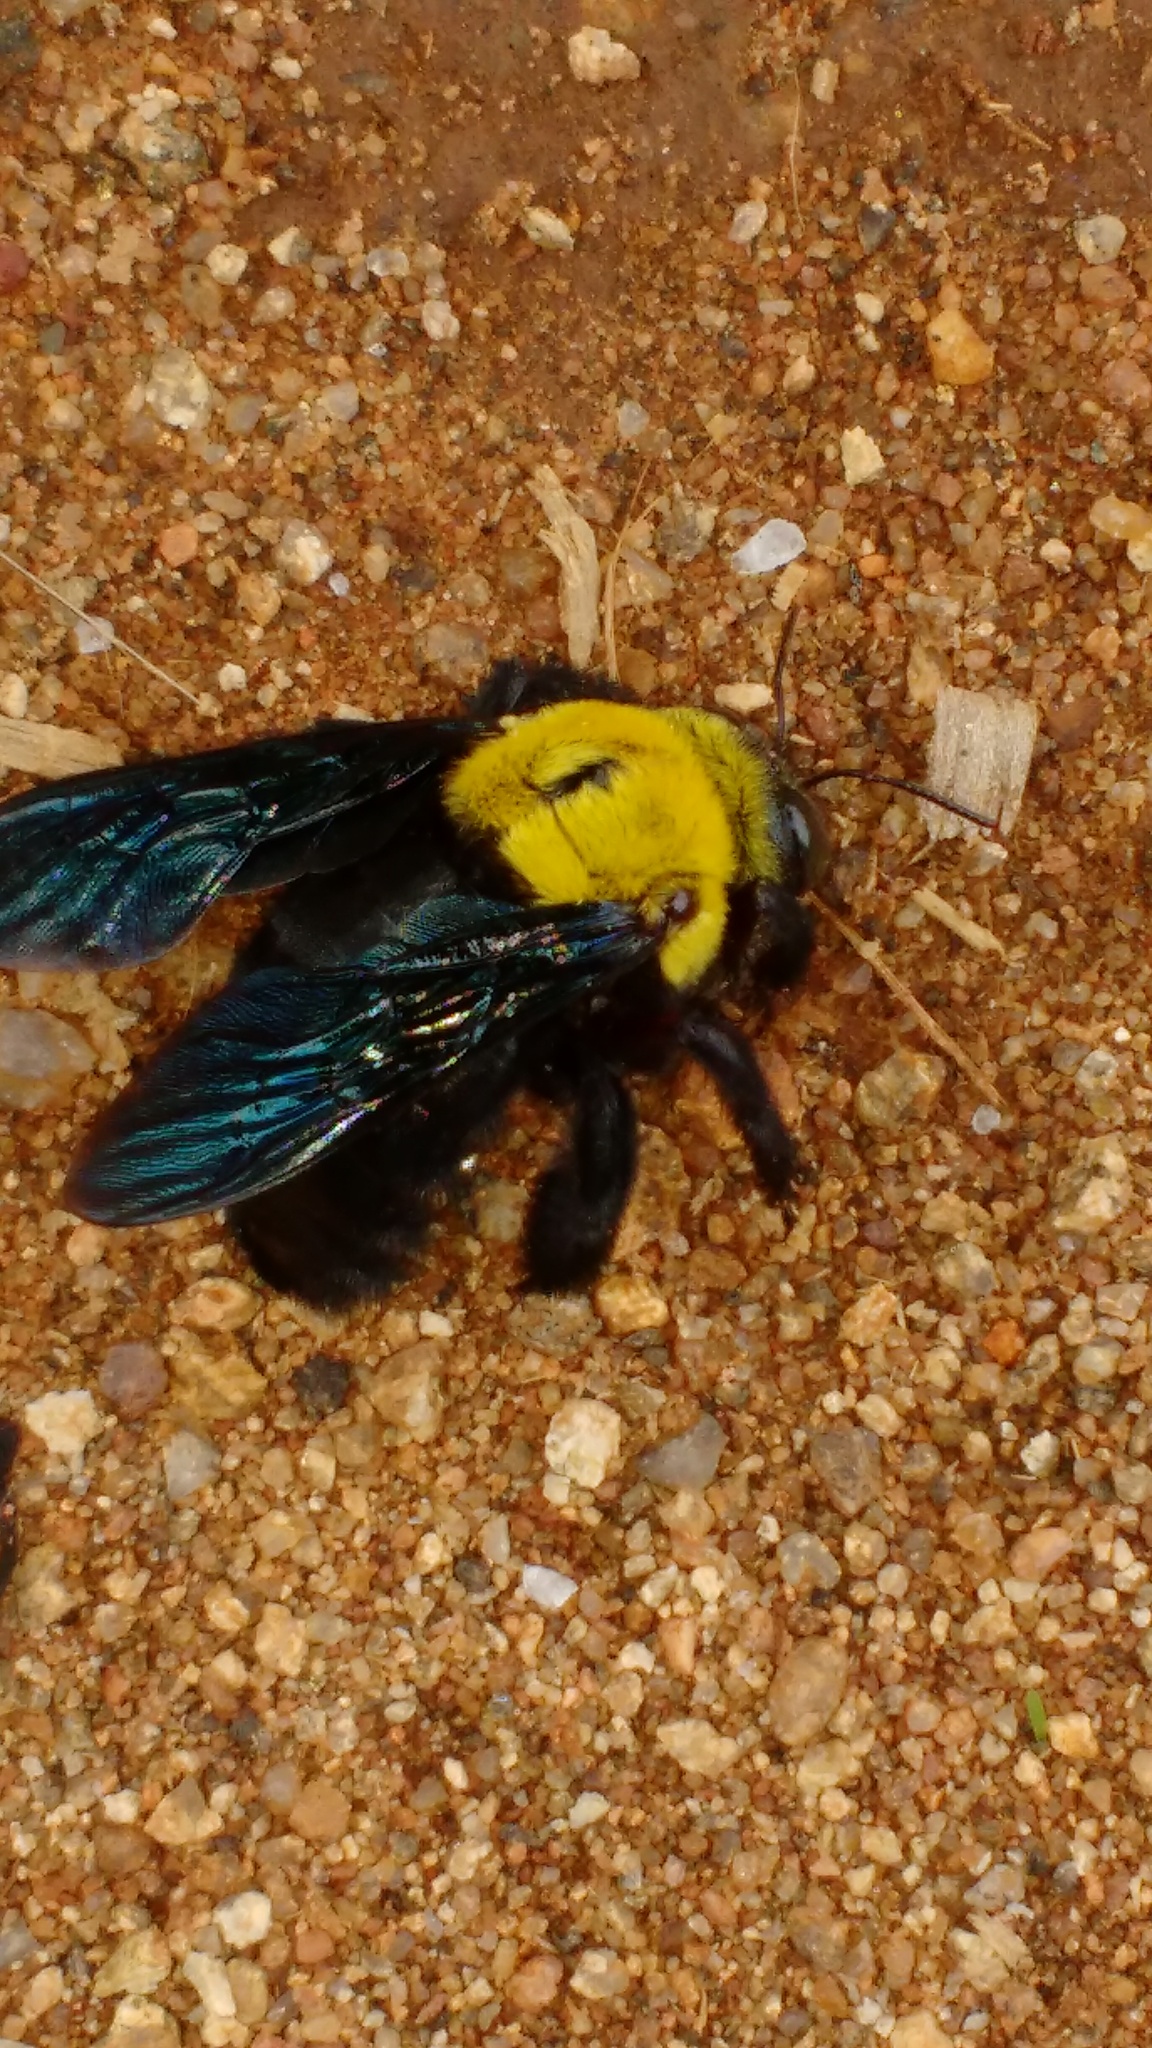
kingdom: Animalia
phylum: Arthropoda
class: Insecta
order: Hymenoptera
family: Apidae
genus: Xylocopa
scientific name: Xylocopa ruficornis
